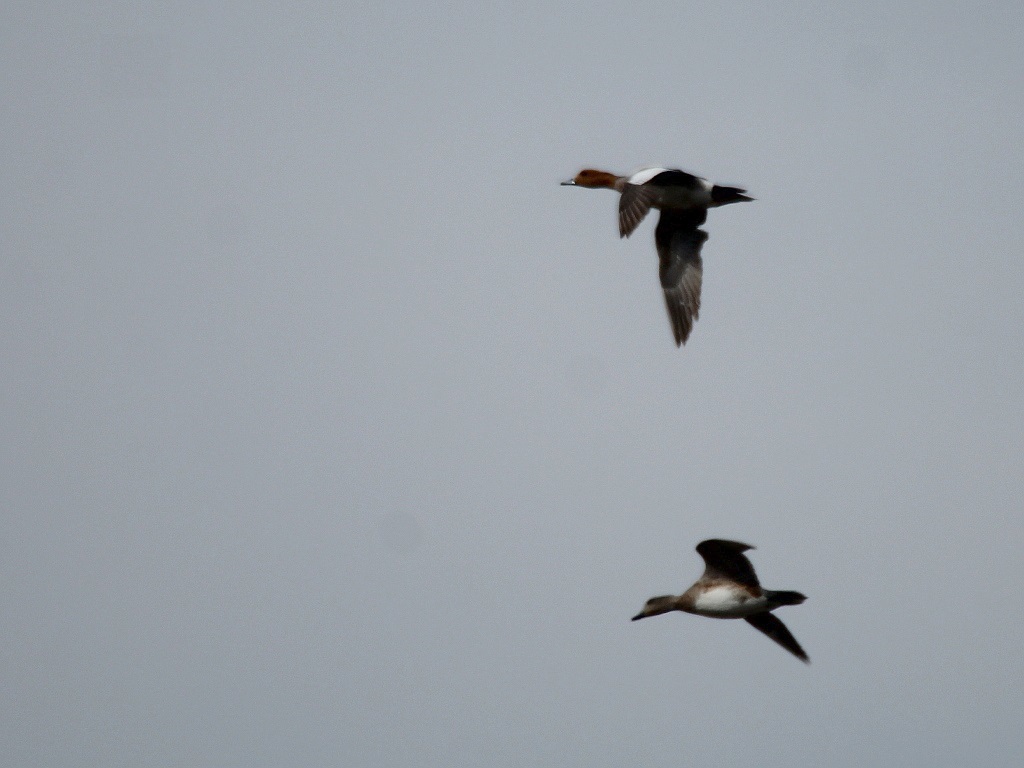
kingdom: Animalia
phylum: Chordata
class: Aves
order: Anseriformes
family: Anatidae
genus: Mareca
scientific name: Mareca penelope
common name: Eurasian wigeon
